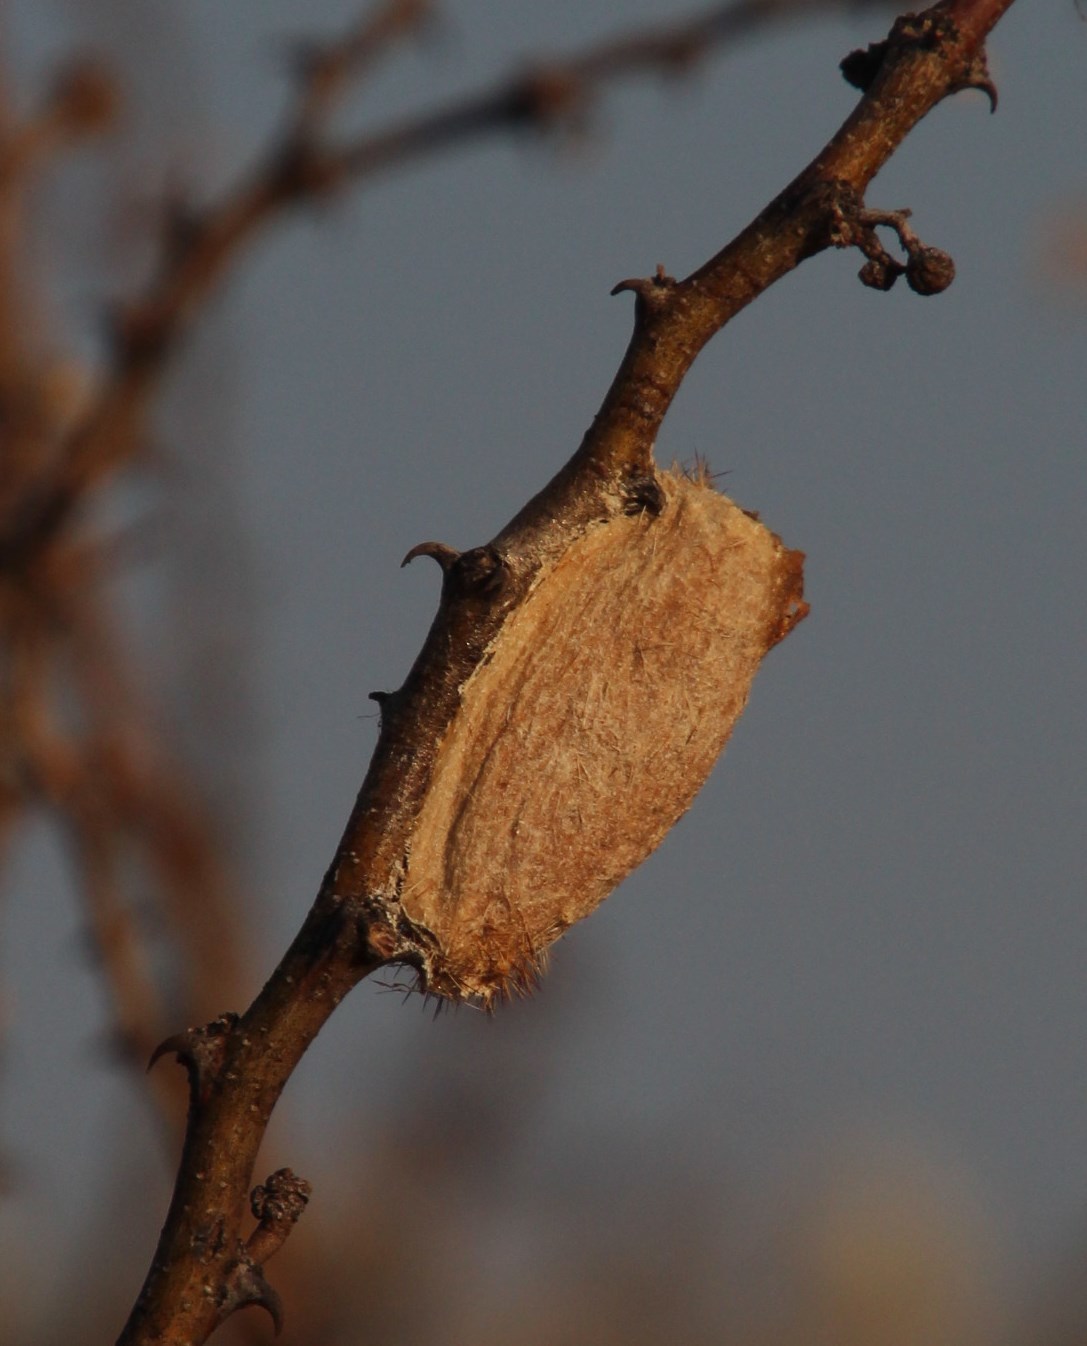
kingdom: Animalia
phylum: Arthropoda
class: Insecta
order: Lepidoptera
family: Lasiocampidae
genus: Gonometa
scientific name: Gonometa postica
